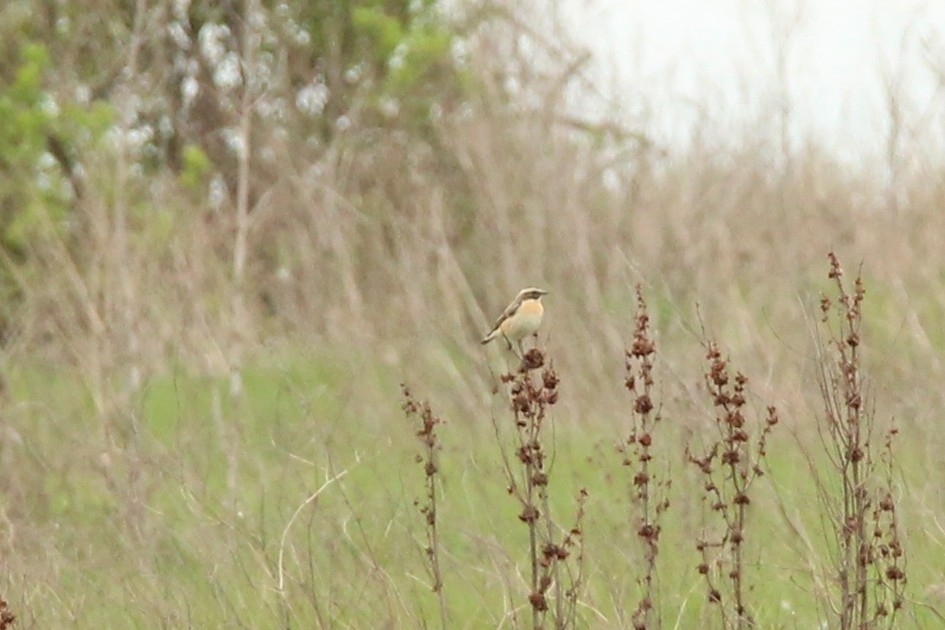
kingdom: Animalia
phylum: Chordata
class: Aves
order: Passeriformes
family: Muscicapidae
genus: Saxicola
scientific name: Saxicola rubetra
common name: Whinchat
